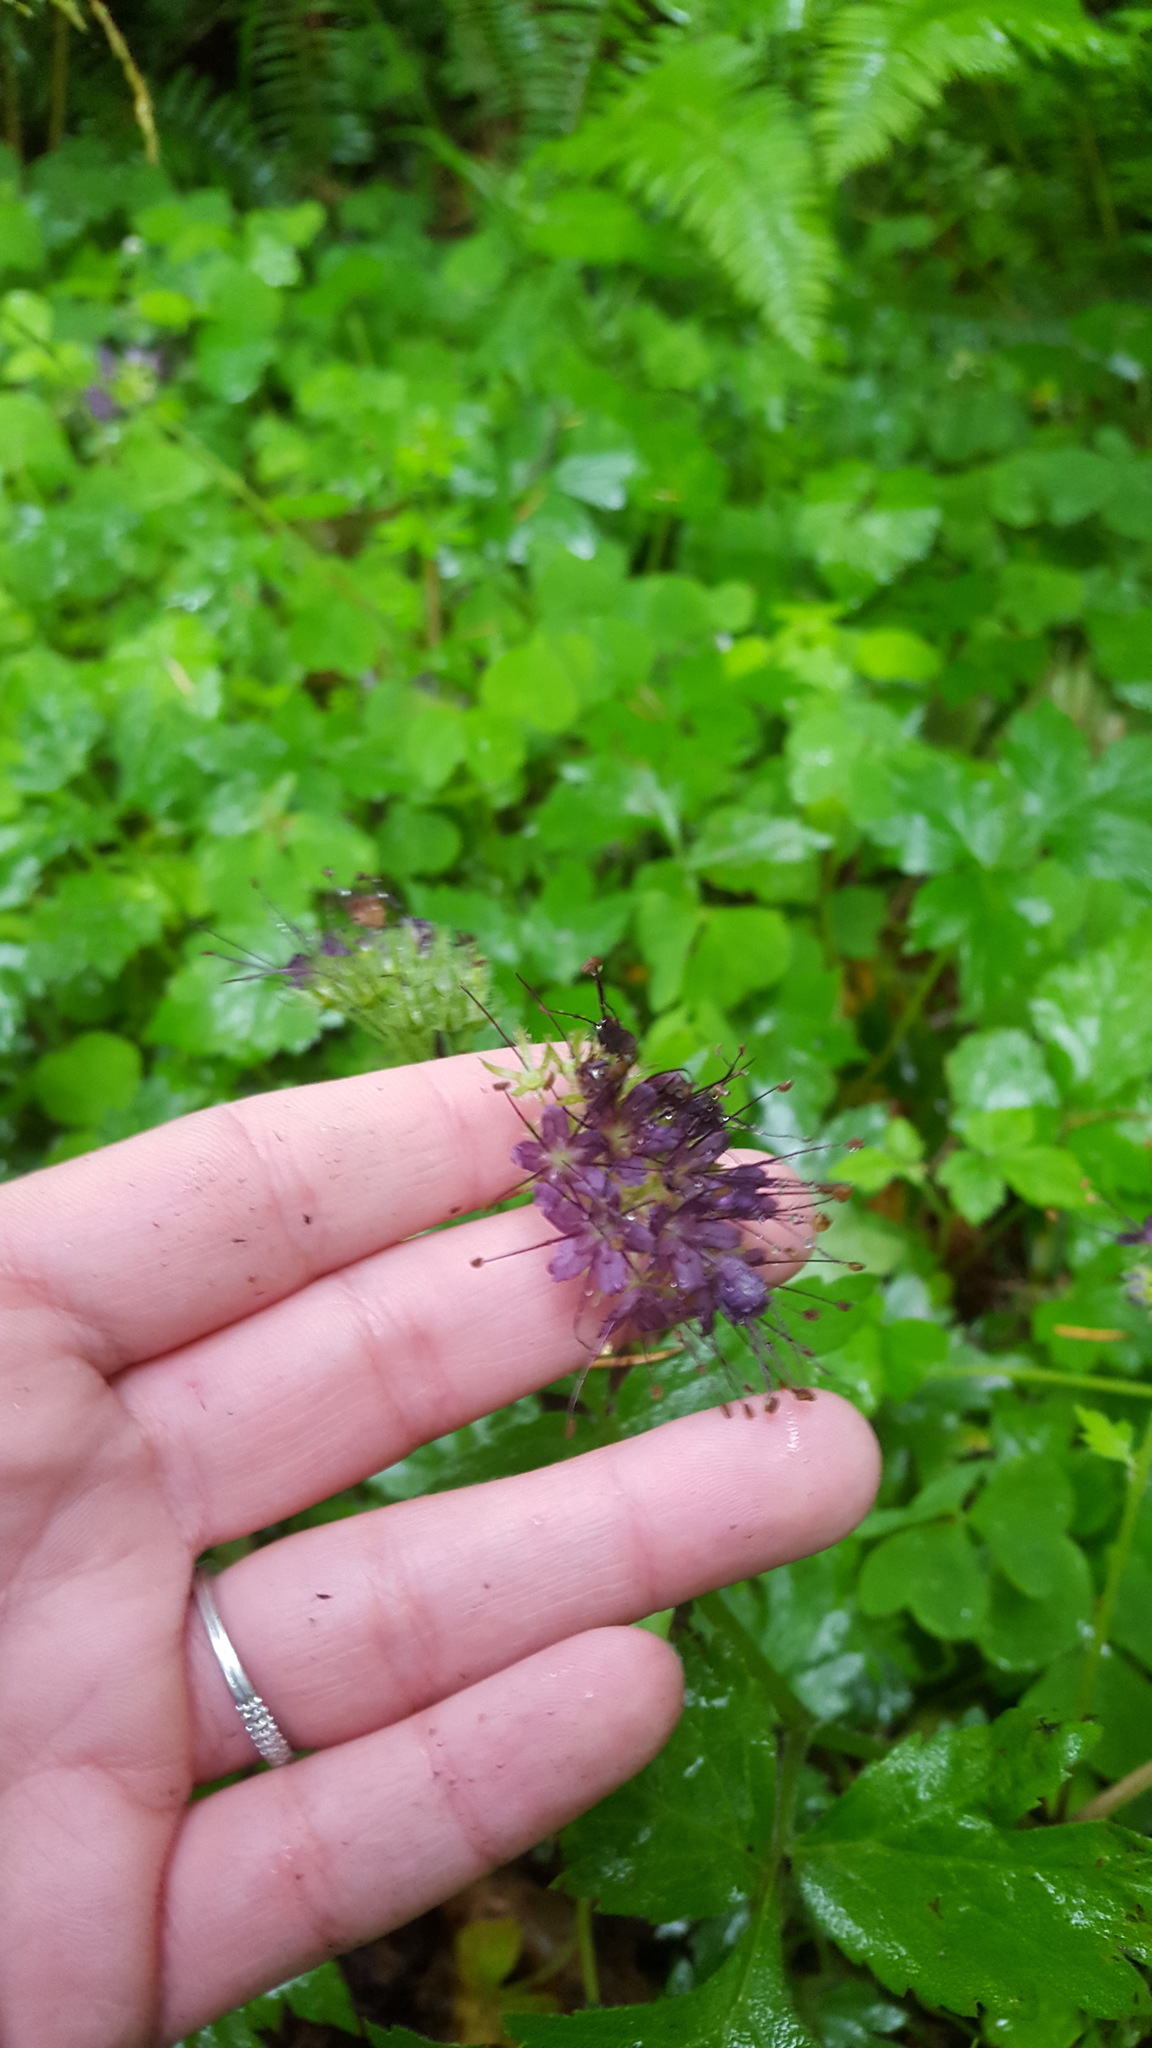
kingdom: Plantae
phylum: Tracheophyta
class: Magnoliopsida
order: Boraginales
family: Hydrophyllaceae
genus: Hydrophyllum
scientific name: Hydrophyllum tenuipes
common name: Pacific waterleaf
